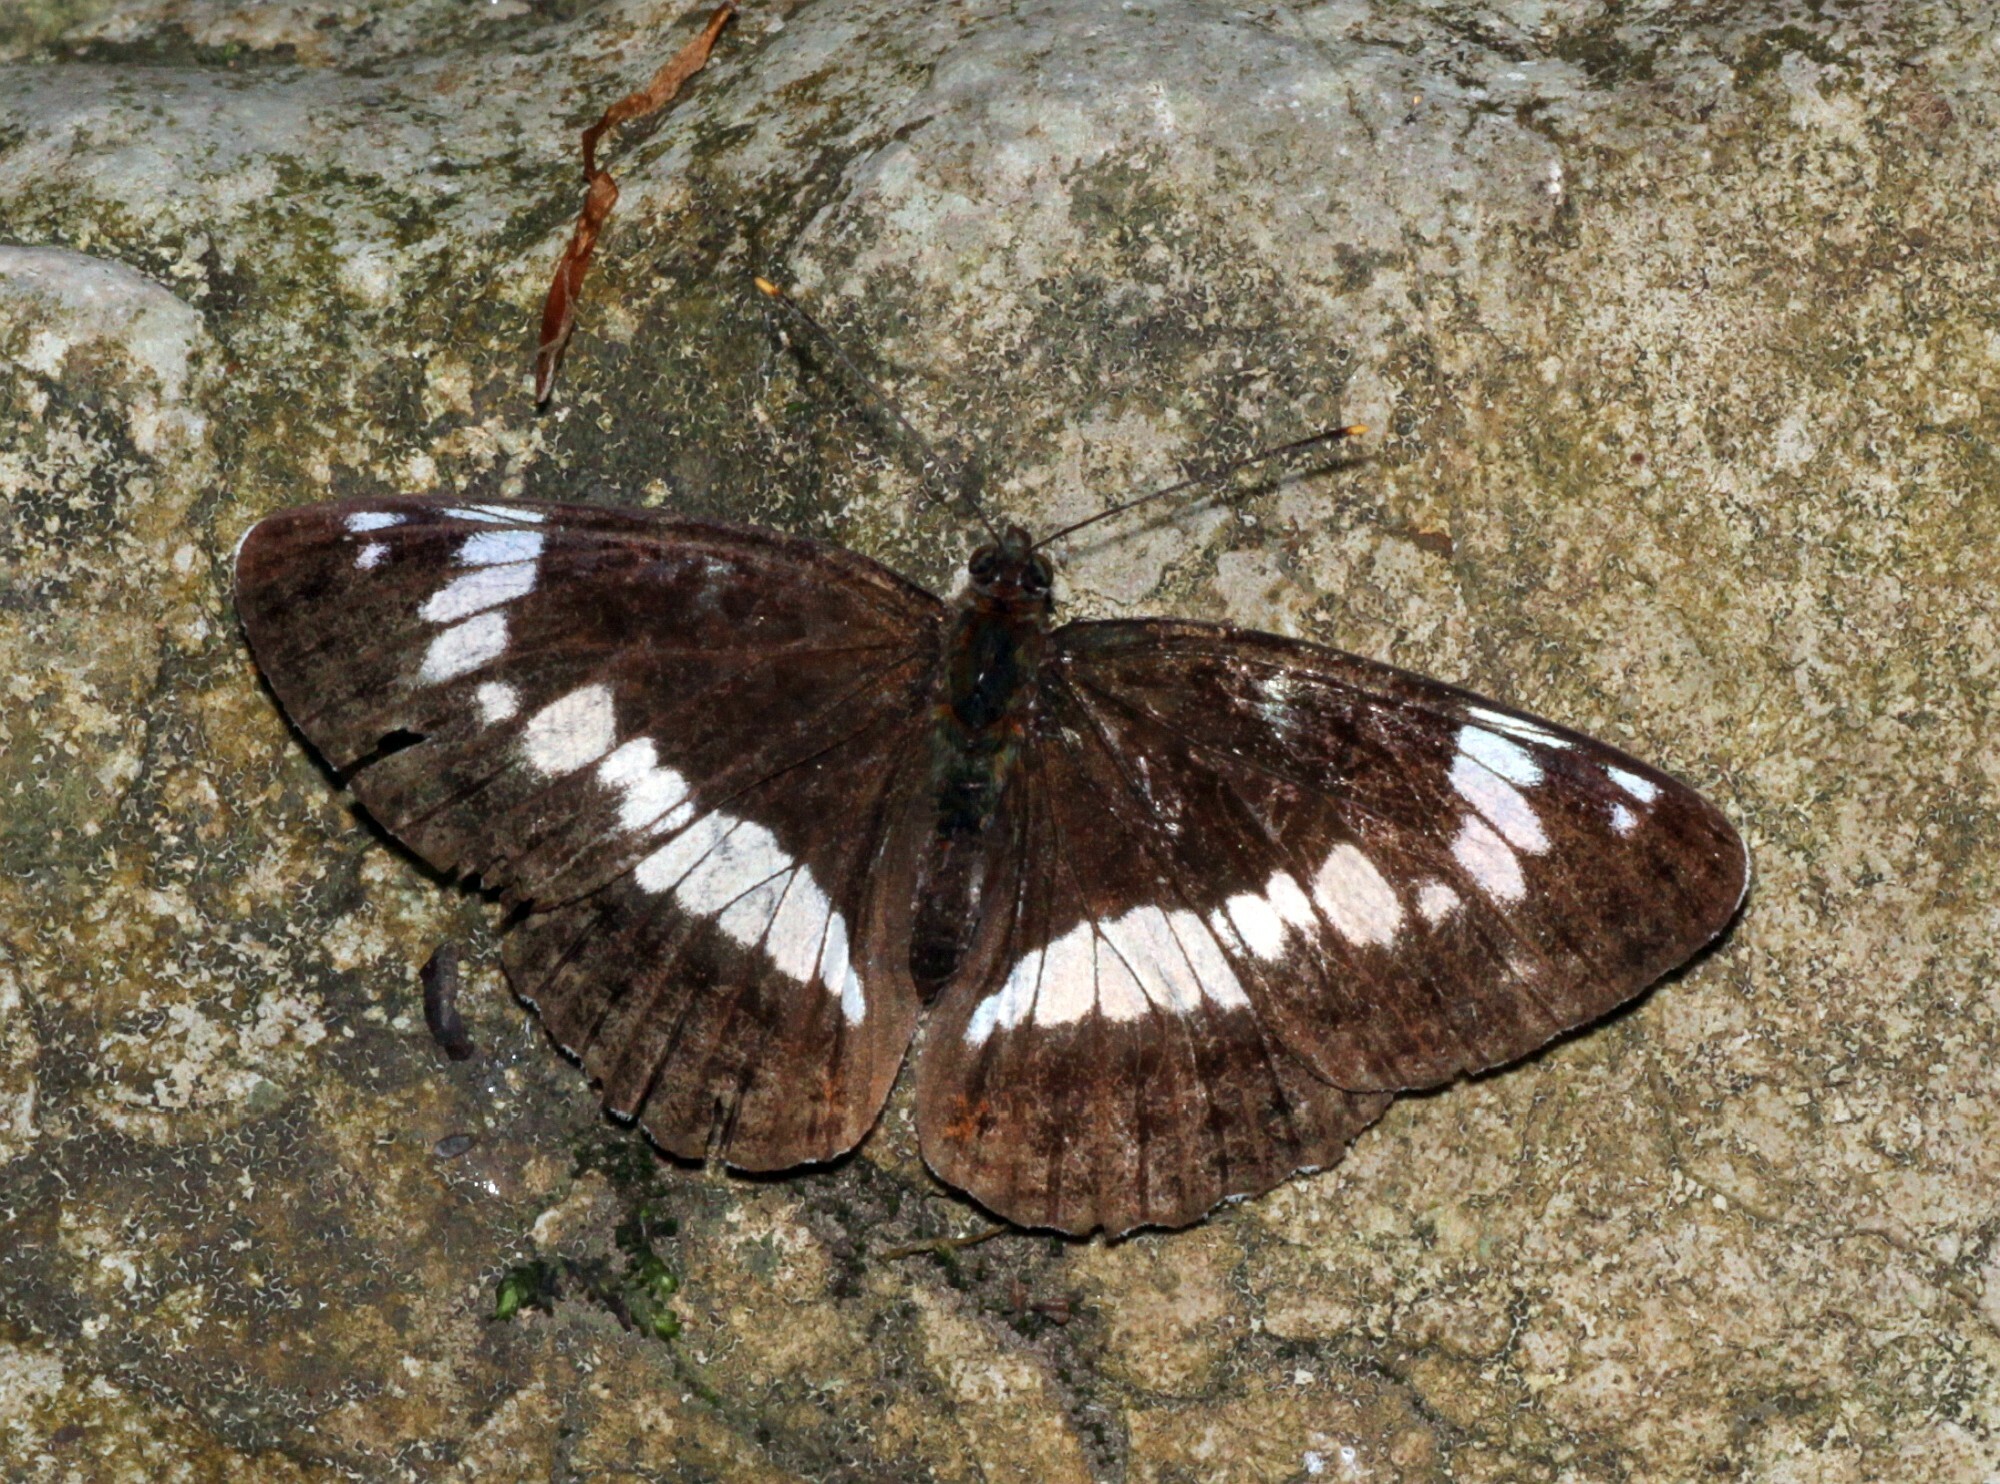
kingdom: Animalia
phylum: Arthropoda
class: Insecta
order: Lepidoptera
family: Nymphalidae
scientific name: Nymphalidae
